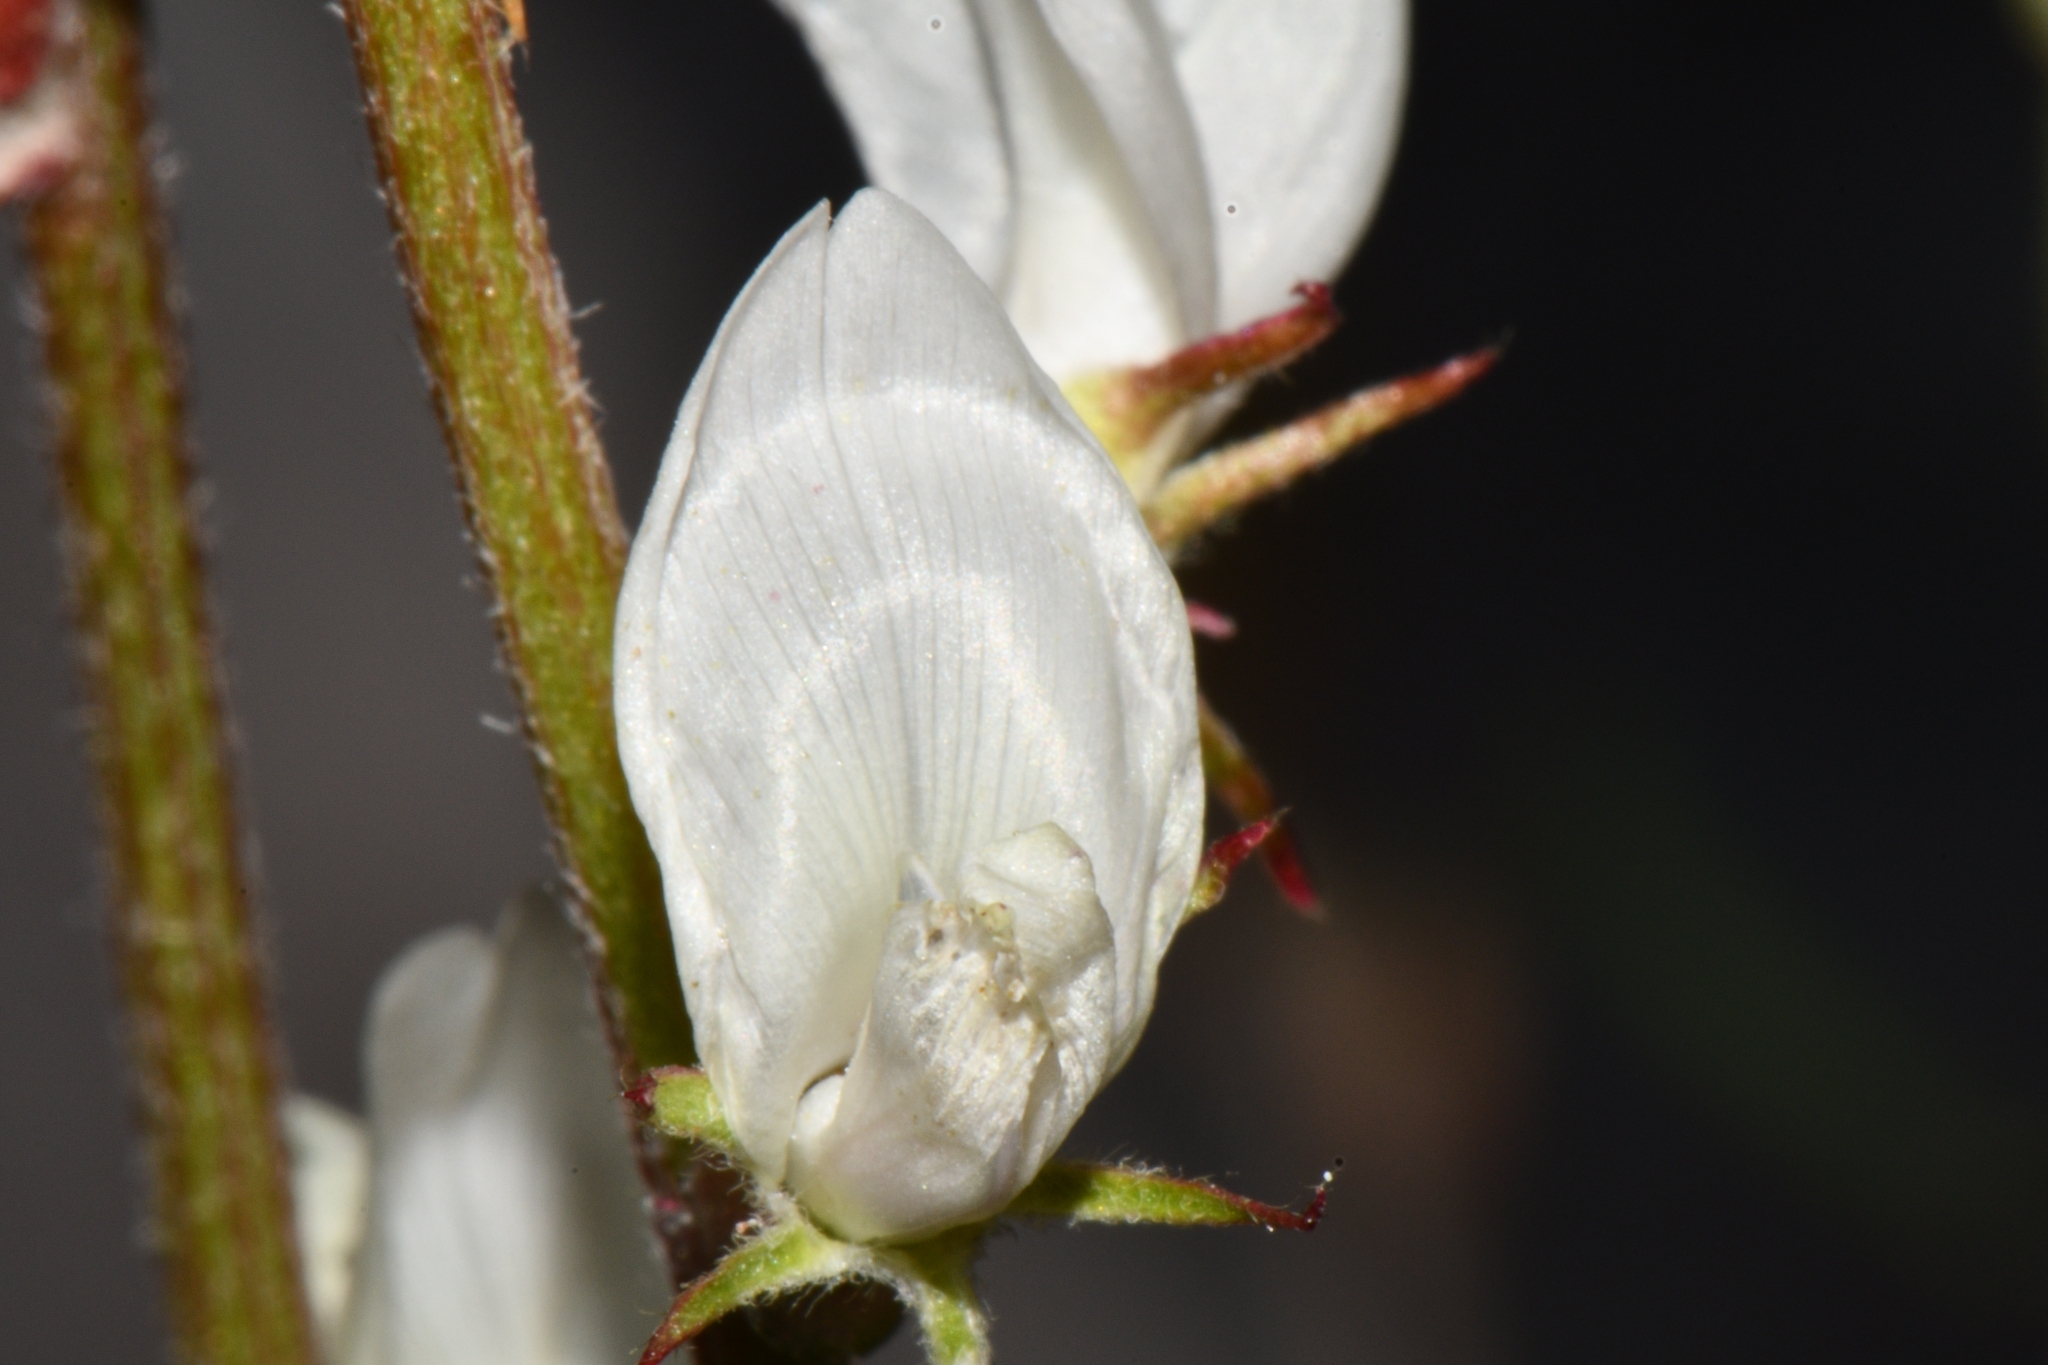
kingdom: Plantae
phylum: Tracheophyta
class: Magnoliopsida
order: Fabales
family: Fabaceae
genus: Astragalus
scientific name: Astragalus flavus
